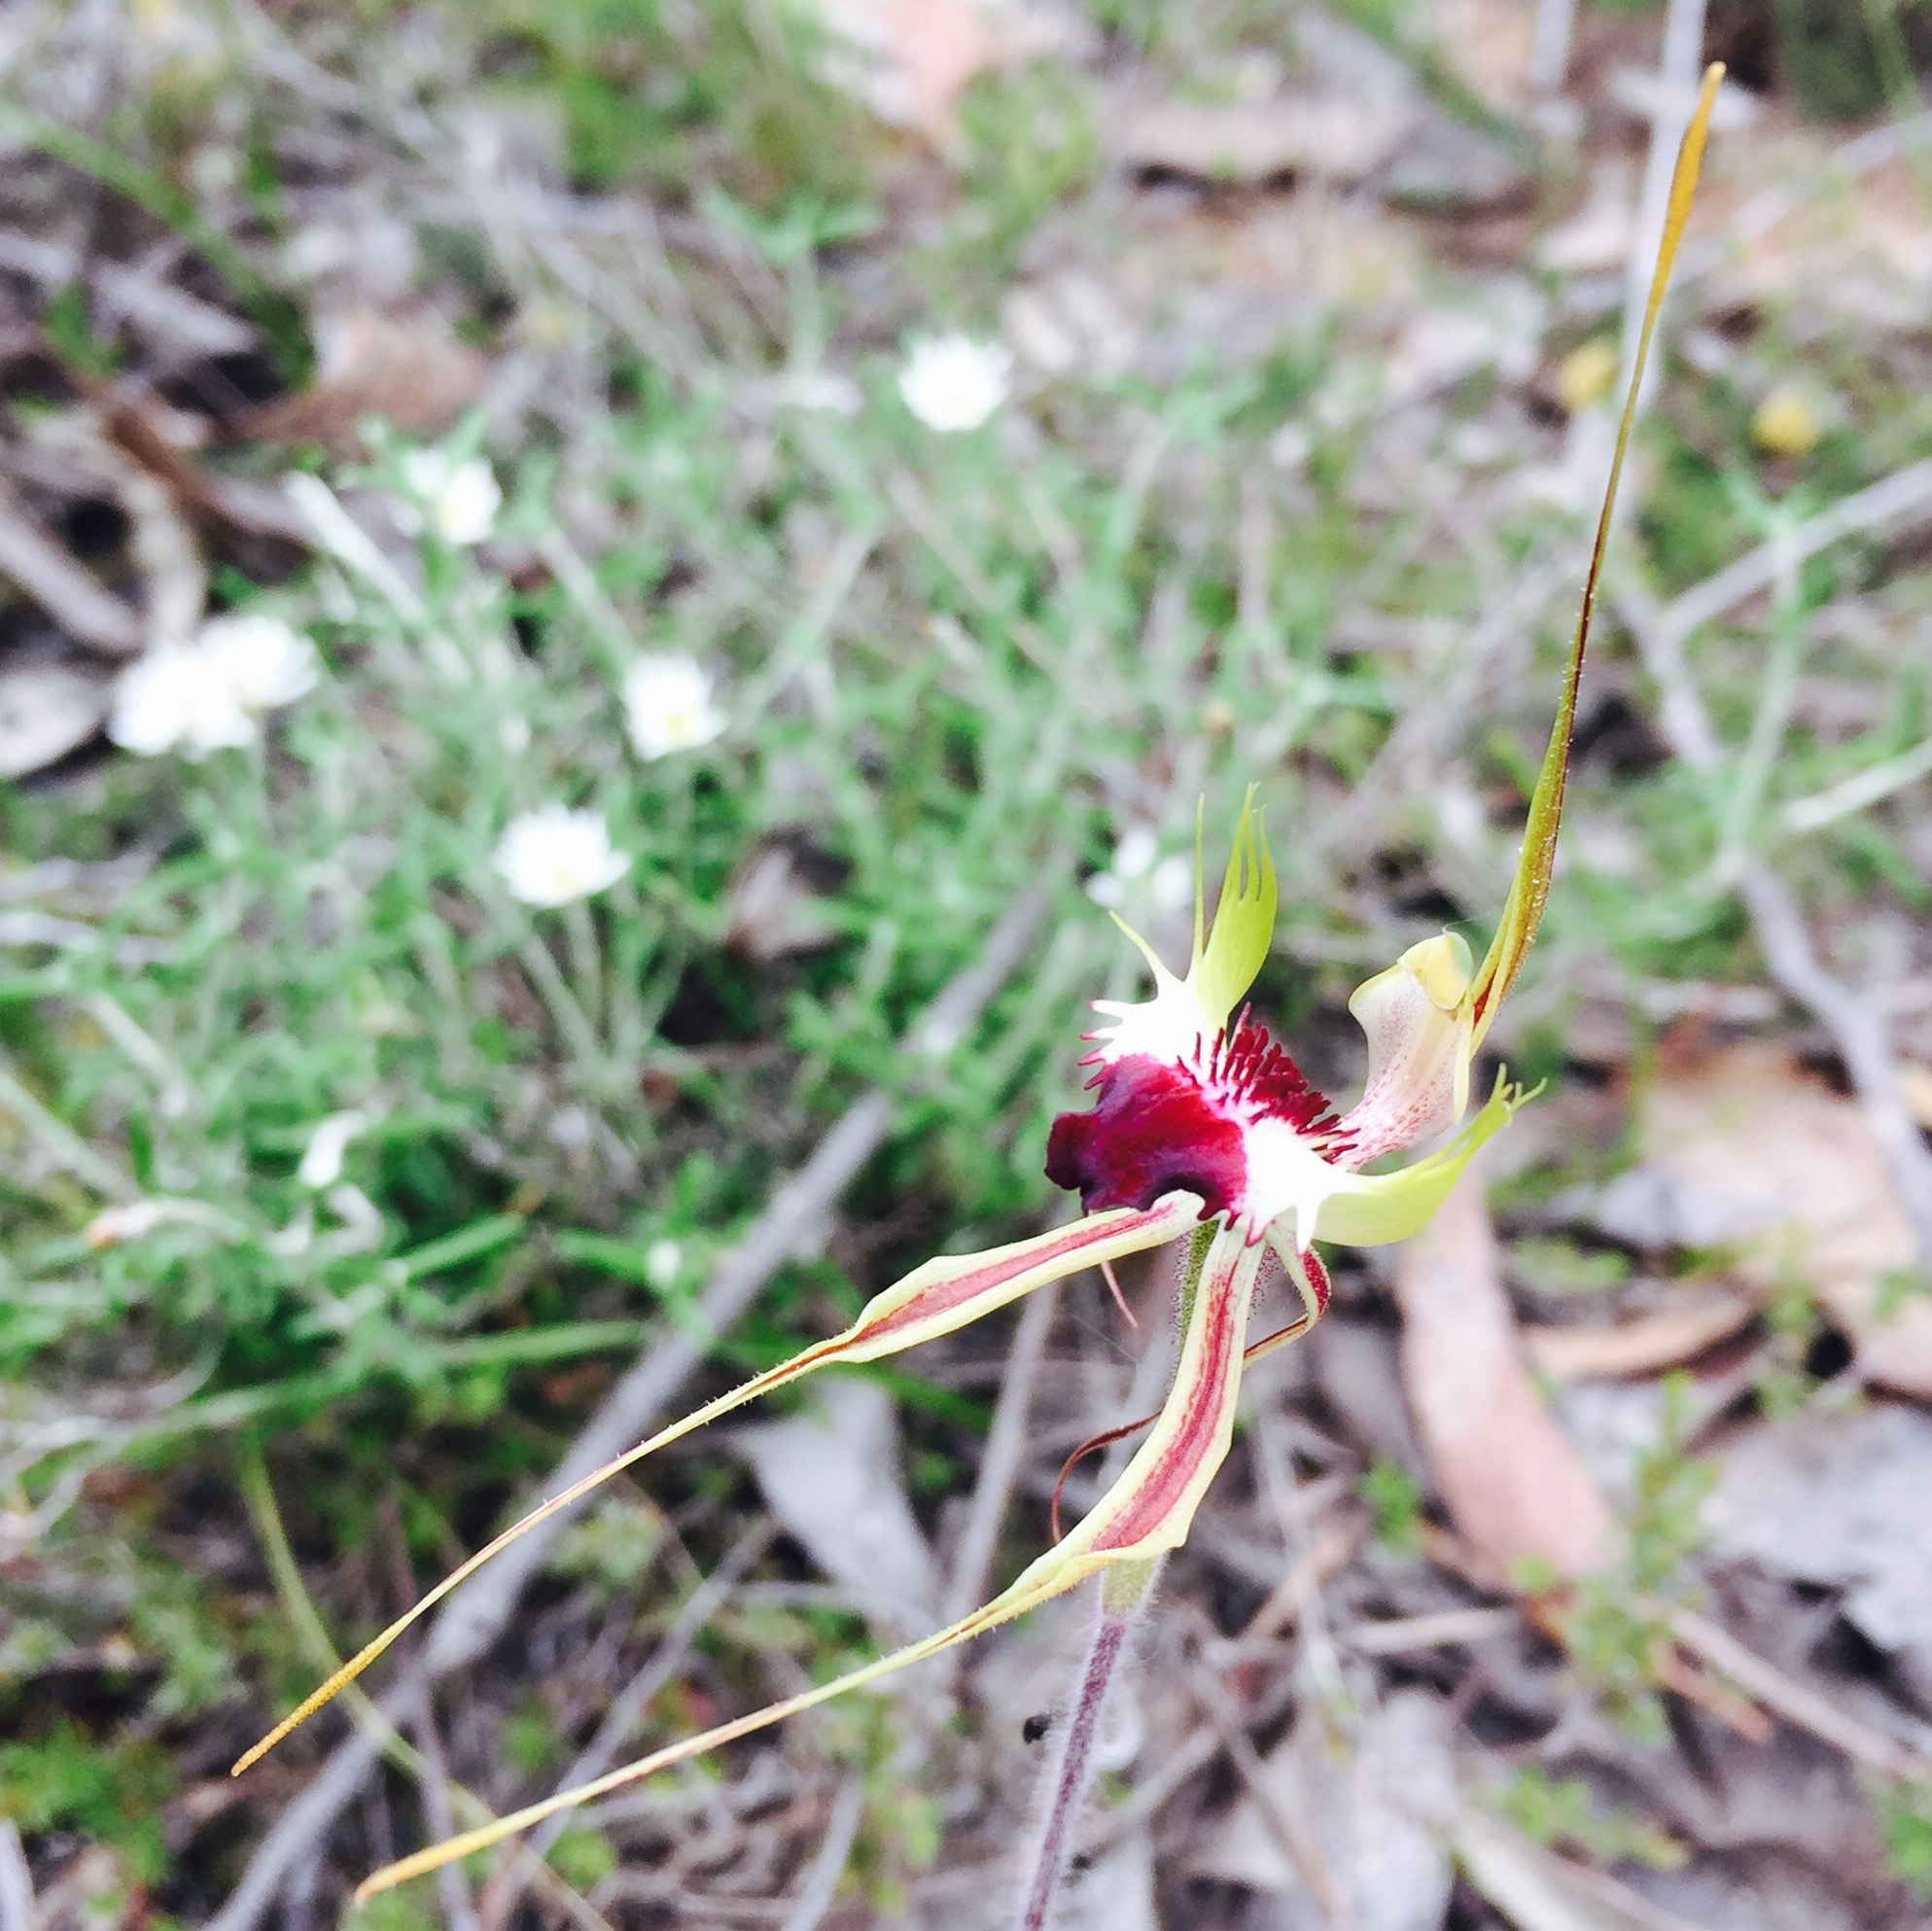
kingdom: Plantae
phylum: Tracheophyta
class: Liliopsida
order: Asparagales
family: Orchidaceae
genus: Caladenia
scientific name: Caladenia tentaculata
